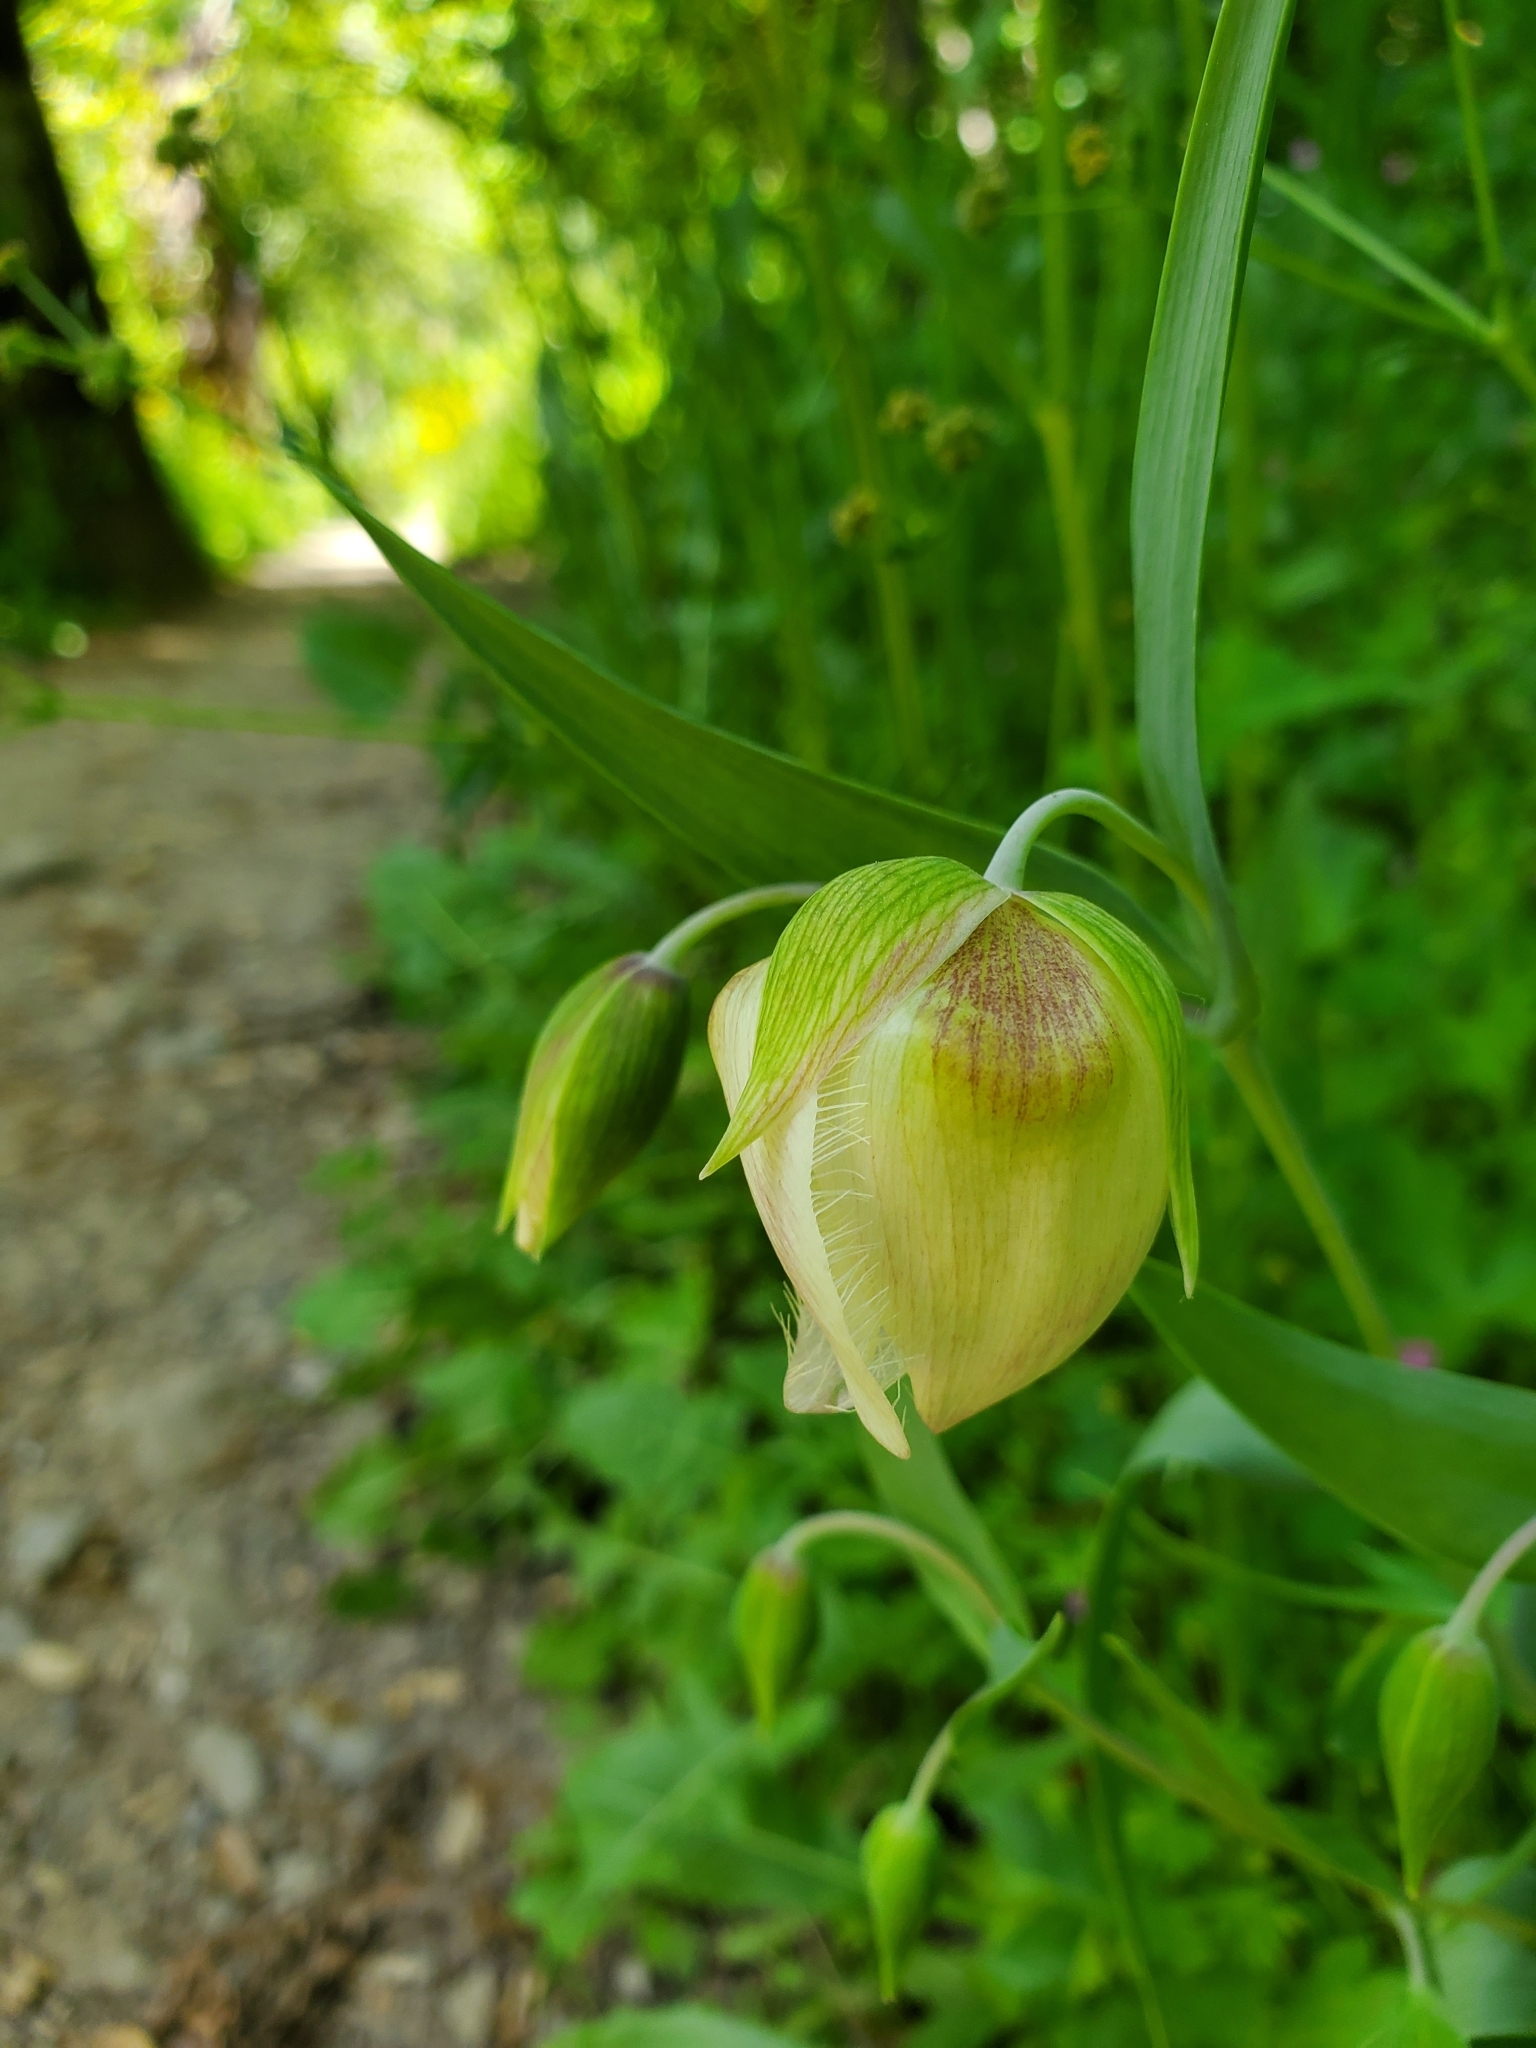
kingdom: Plantae
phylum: Tracheophyta
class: Liliopsida
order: Liliales
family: Liliaceae
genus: Calochortus
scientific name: Calochortus albus
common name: Fairy-lantern
